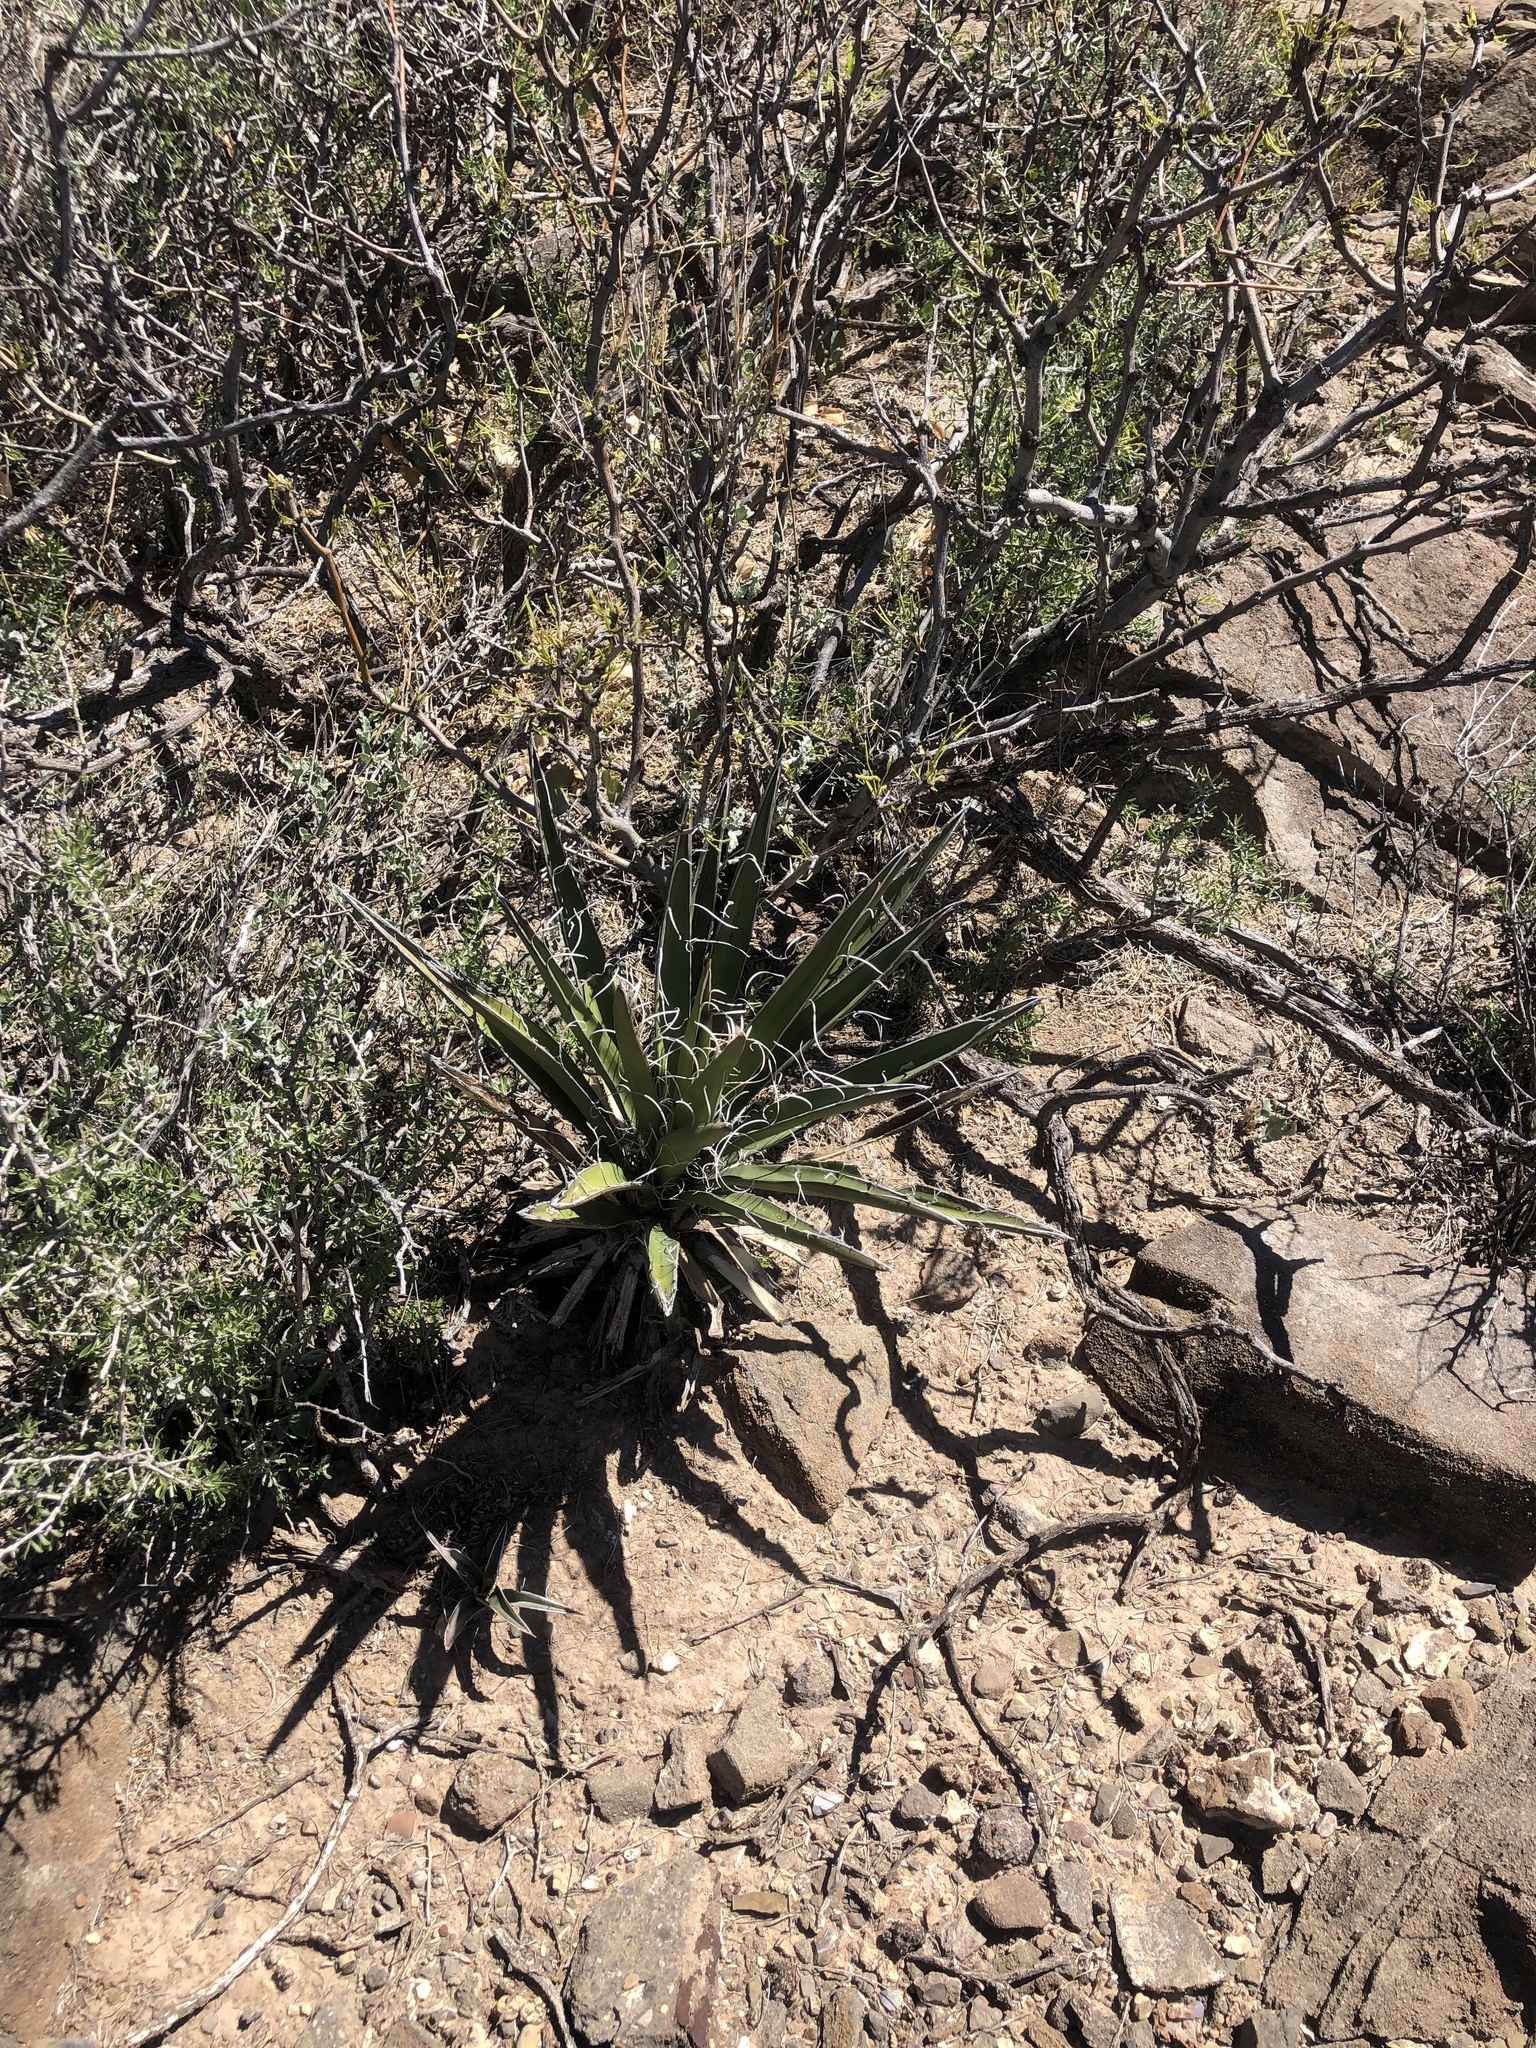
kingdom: Plantae
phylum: Tracheophyta
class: Liliopsida
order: Asparagales
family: Asparagaceae
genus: Yucca
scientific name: Yucca baccata
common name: Banana yucca
